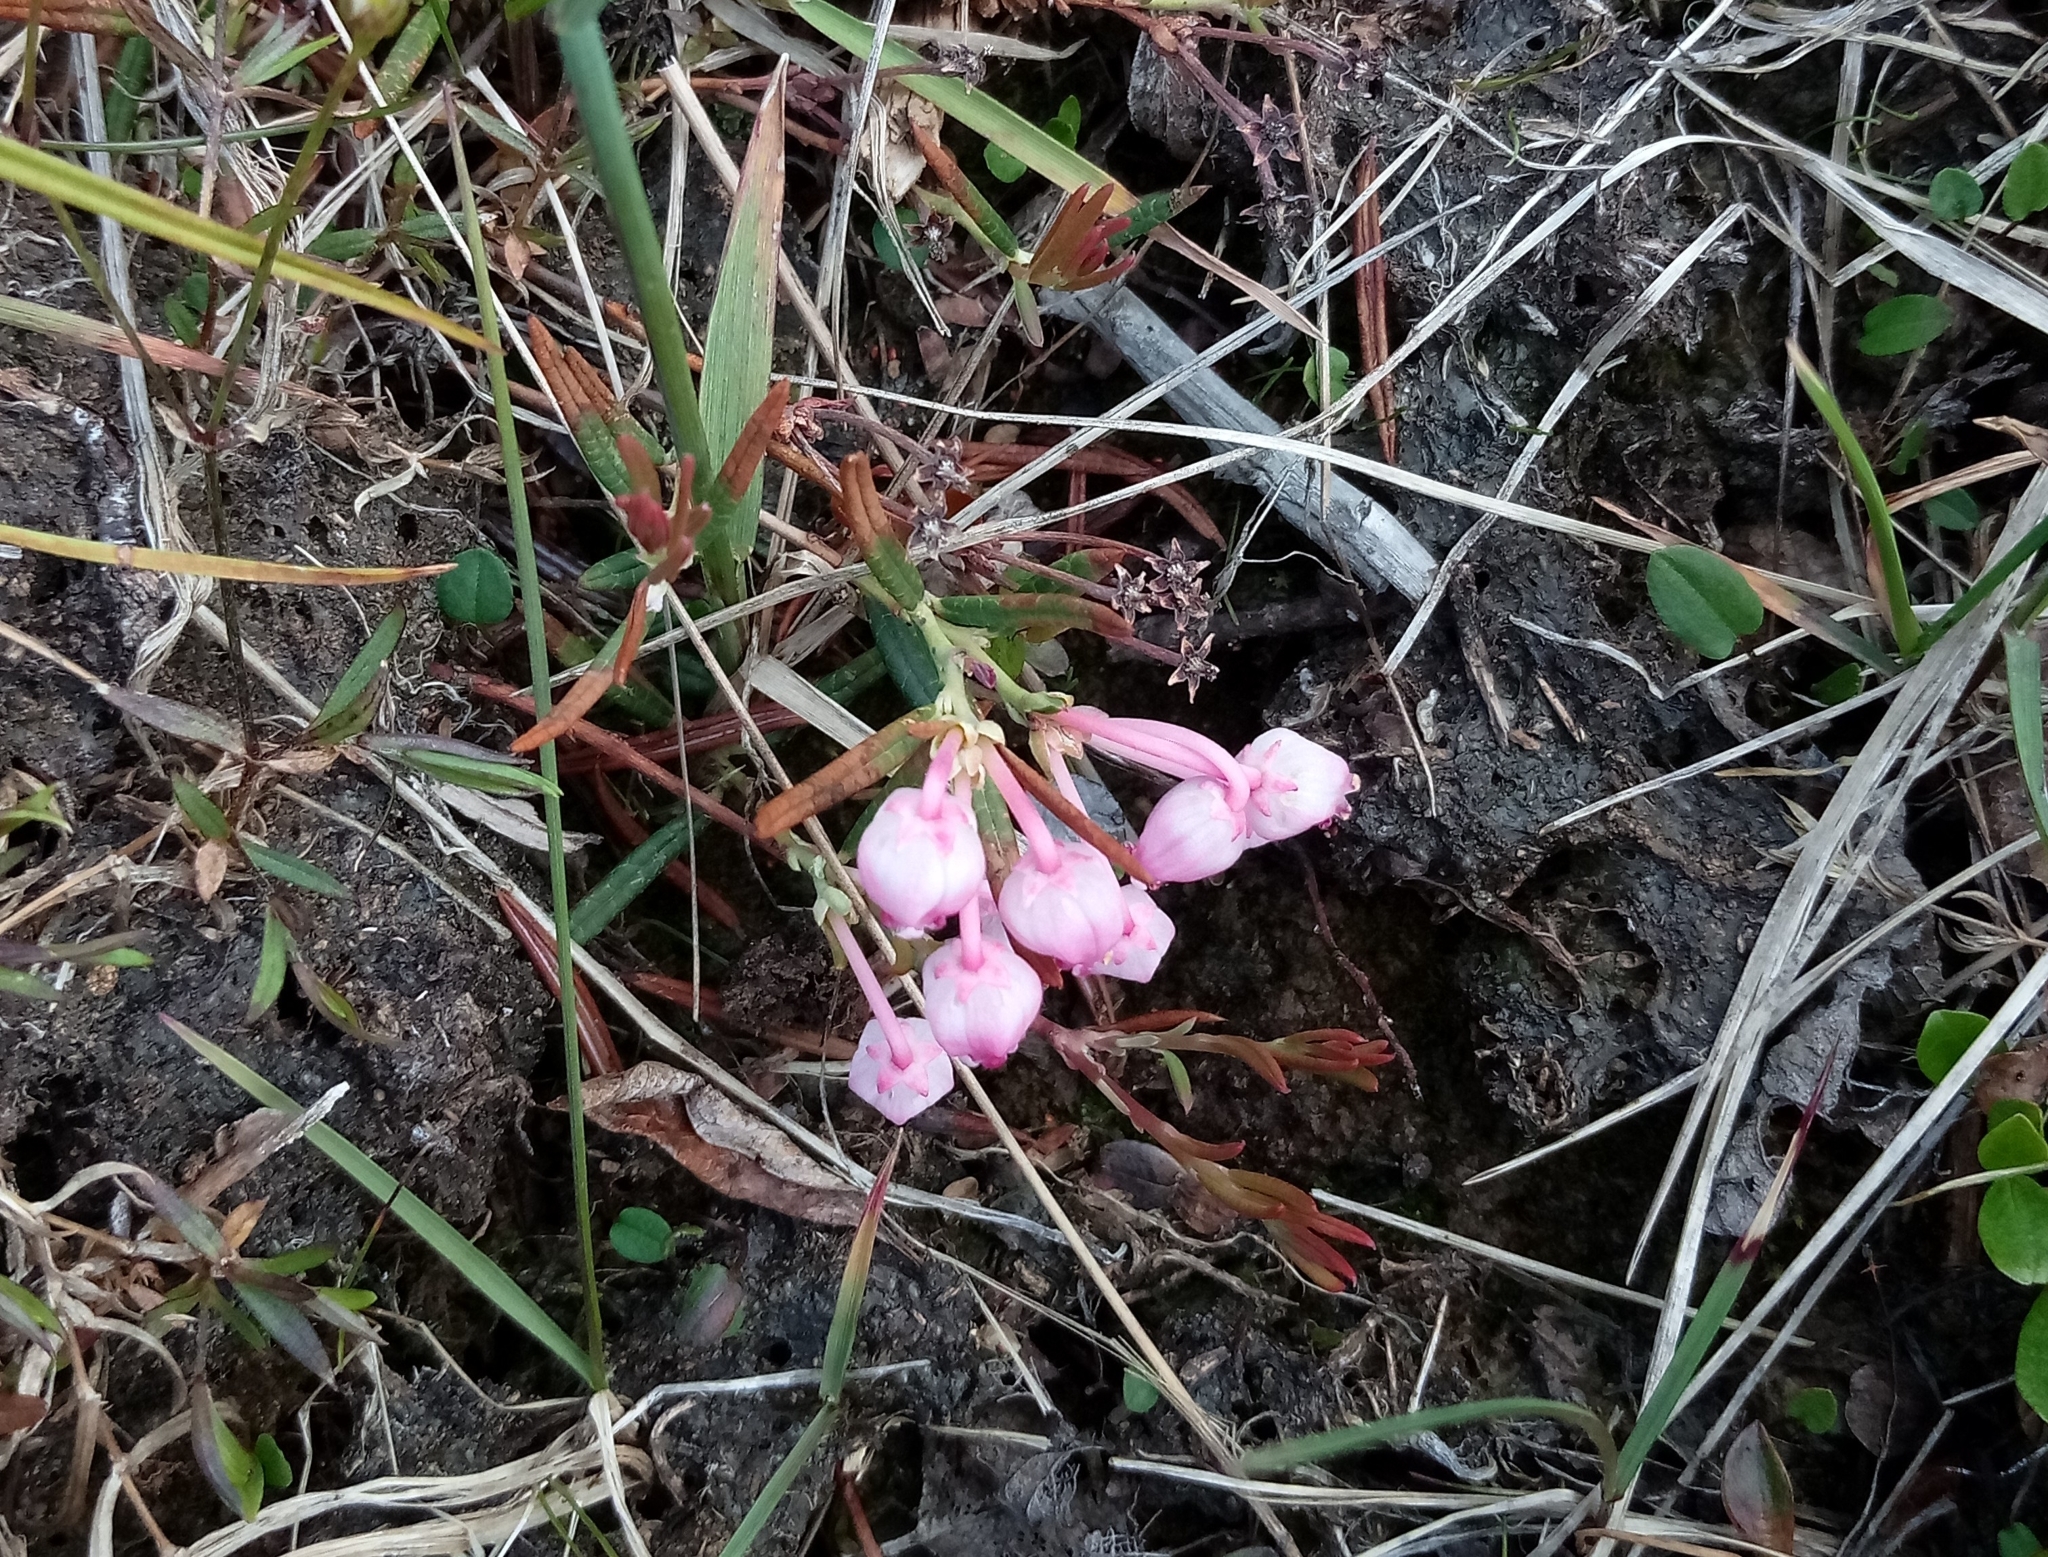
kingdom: Plantae
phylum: Tracheophyta
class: Magnoliopsida
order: Ericales
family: Ericaceae
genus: Andromeda
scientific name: Andromeda polifolia
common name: Bog-rosemary
